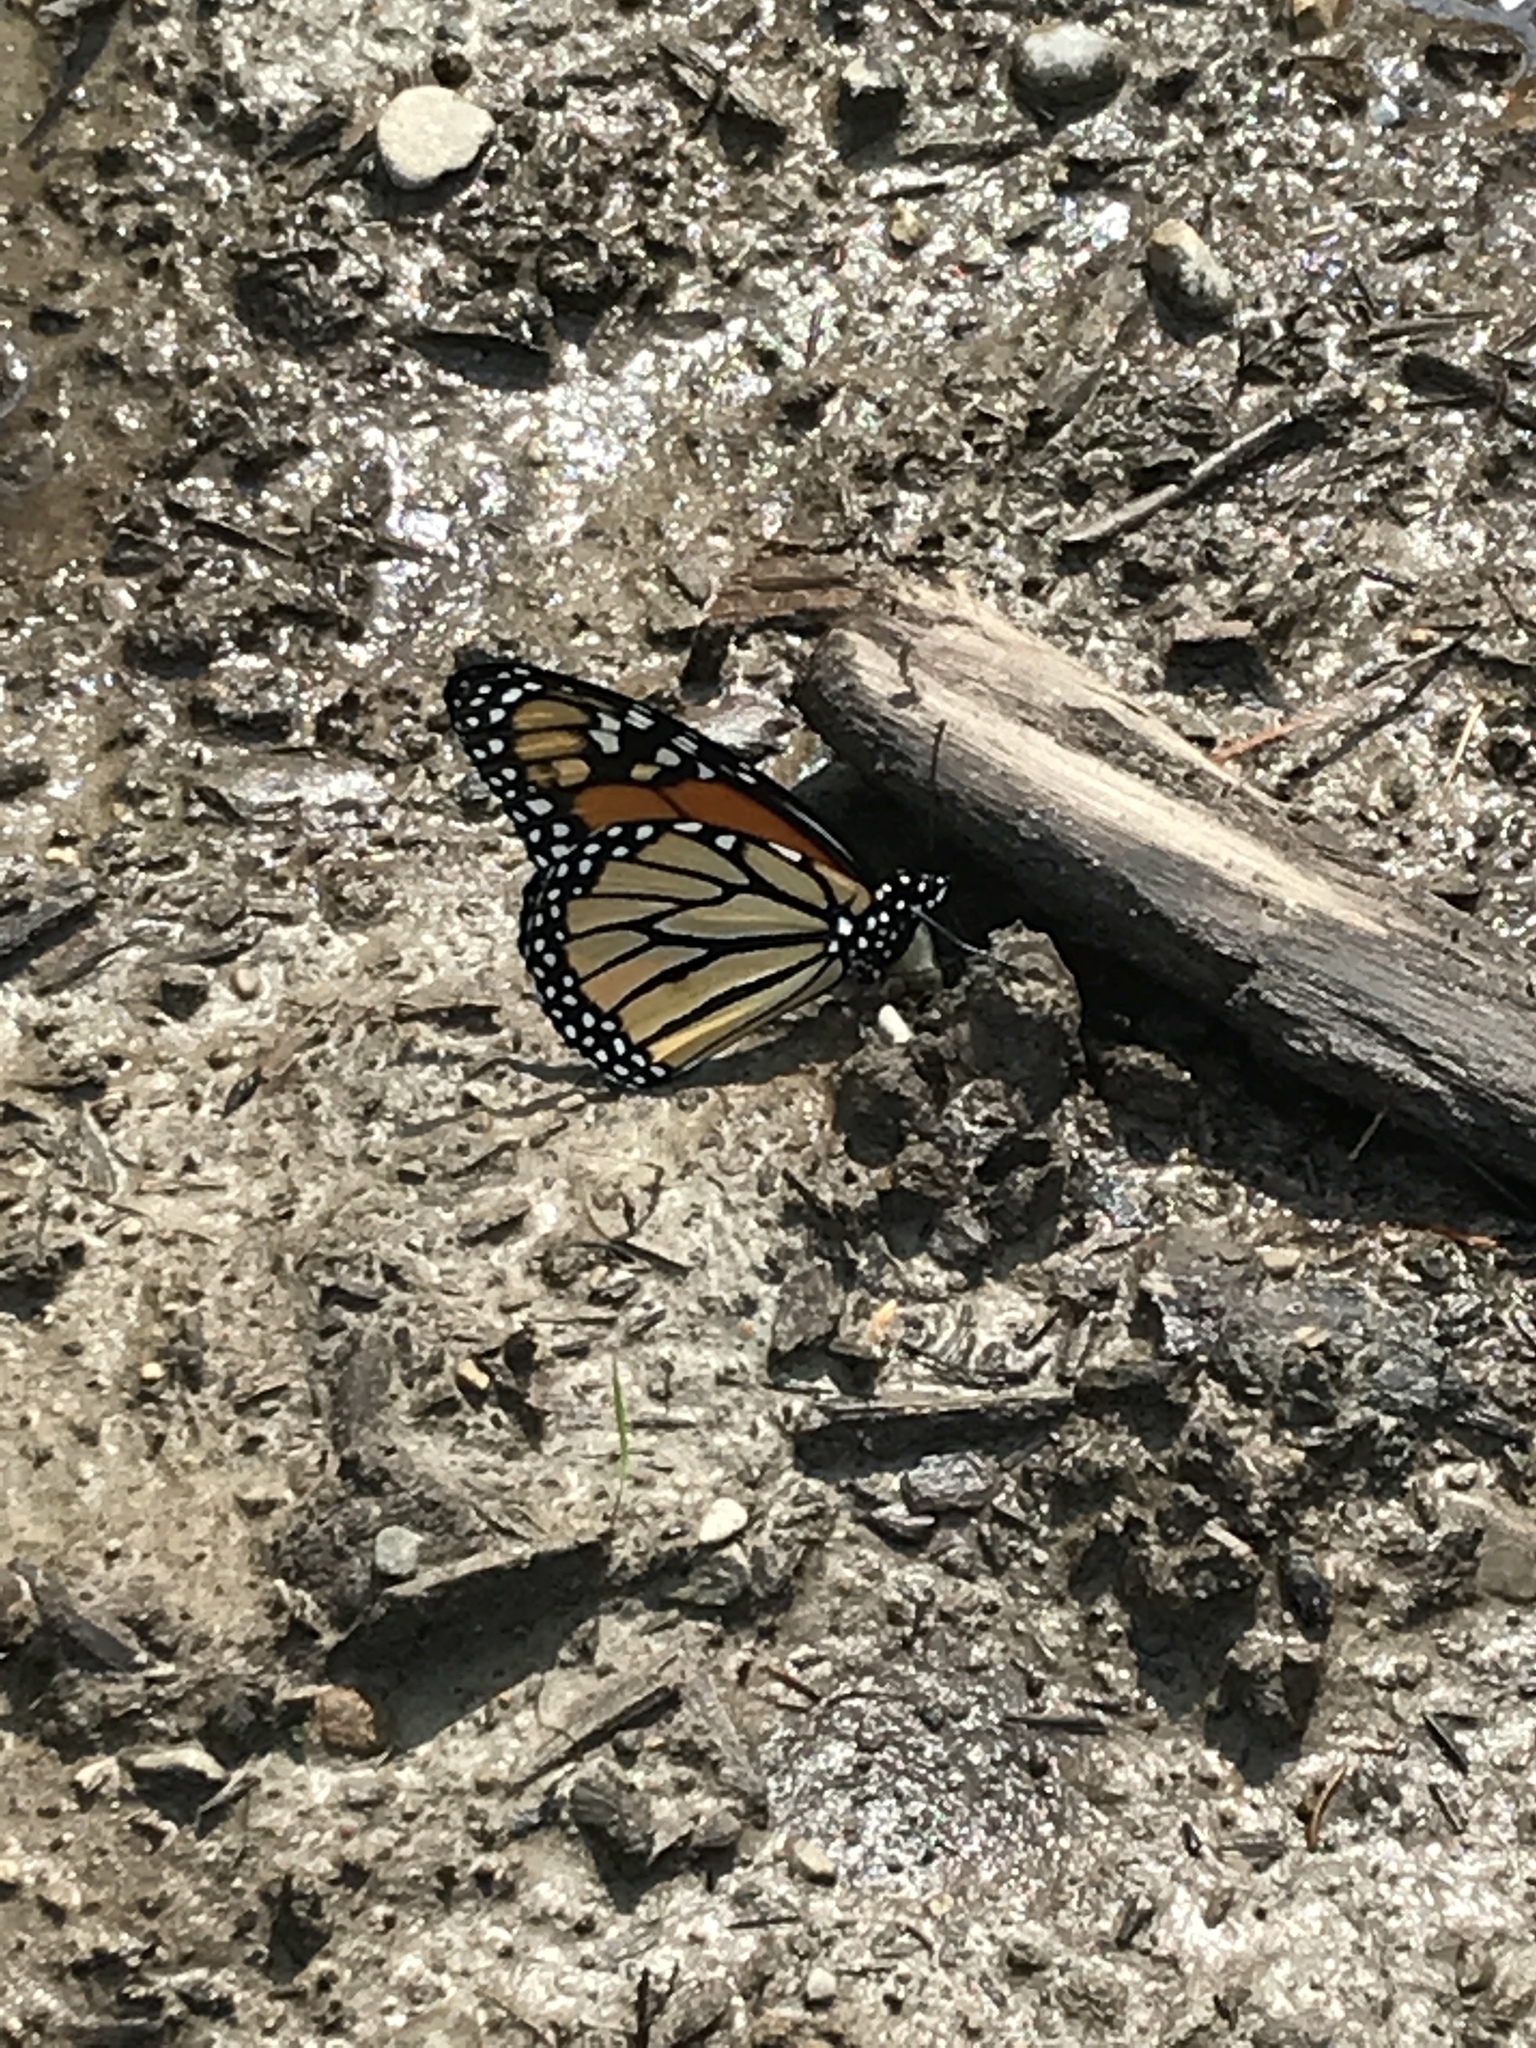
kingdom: Animalia
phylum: Arthropoda
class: Insecta
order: Lepidoptera
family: Nymphalidae
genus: Danaus
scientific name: Danaus plexippus
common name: Monarch
